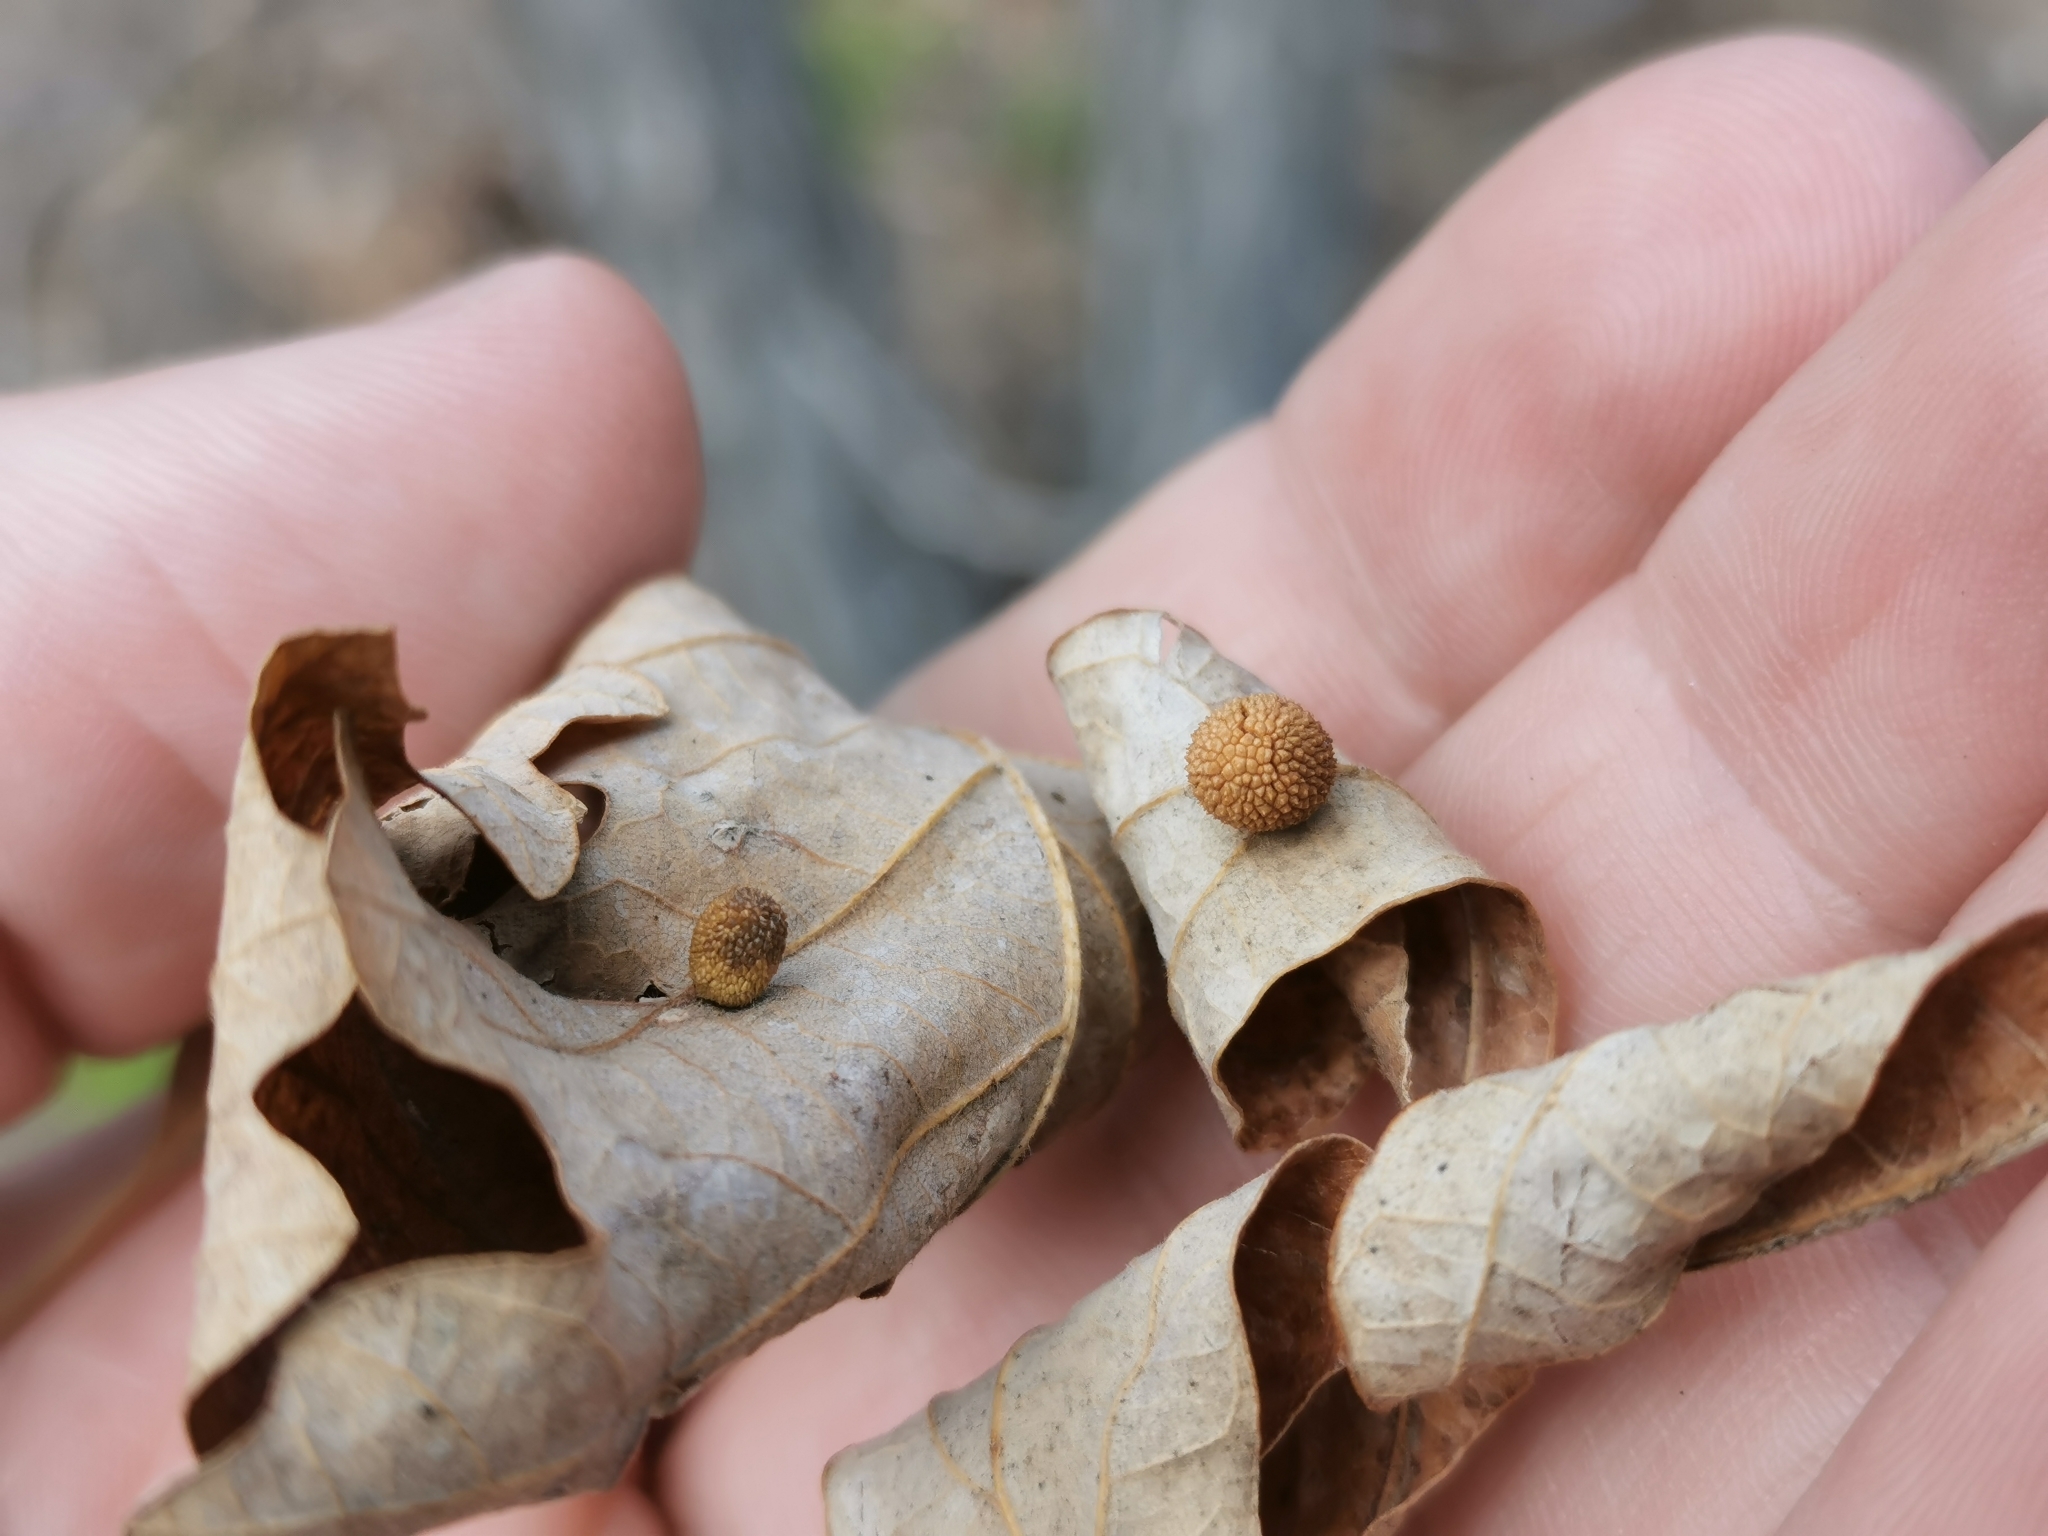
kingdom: Animalia
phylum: Arthropoda
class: Insecta
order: Hymenoptera
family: Cynipidae
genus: Acraspis
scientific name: Acraspis quercushirta
